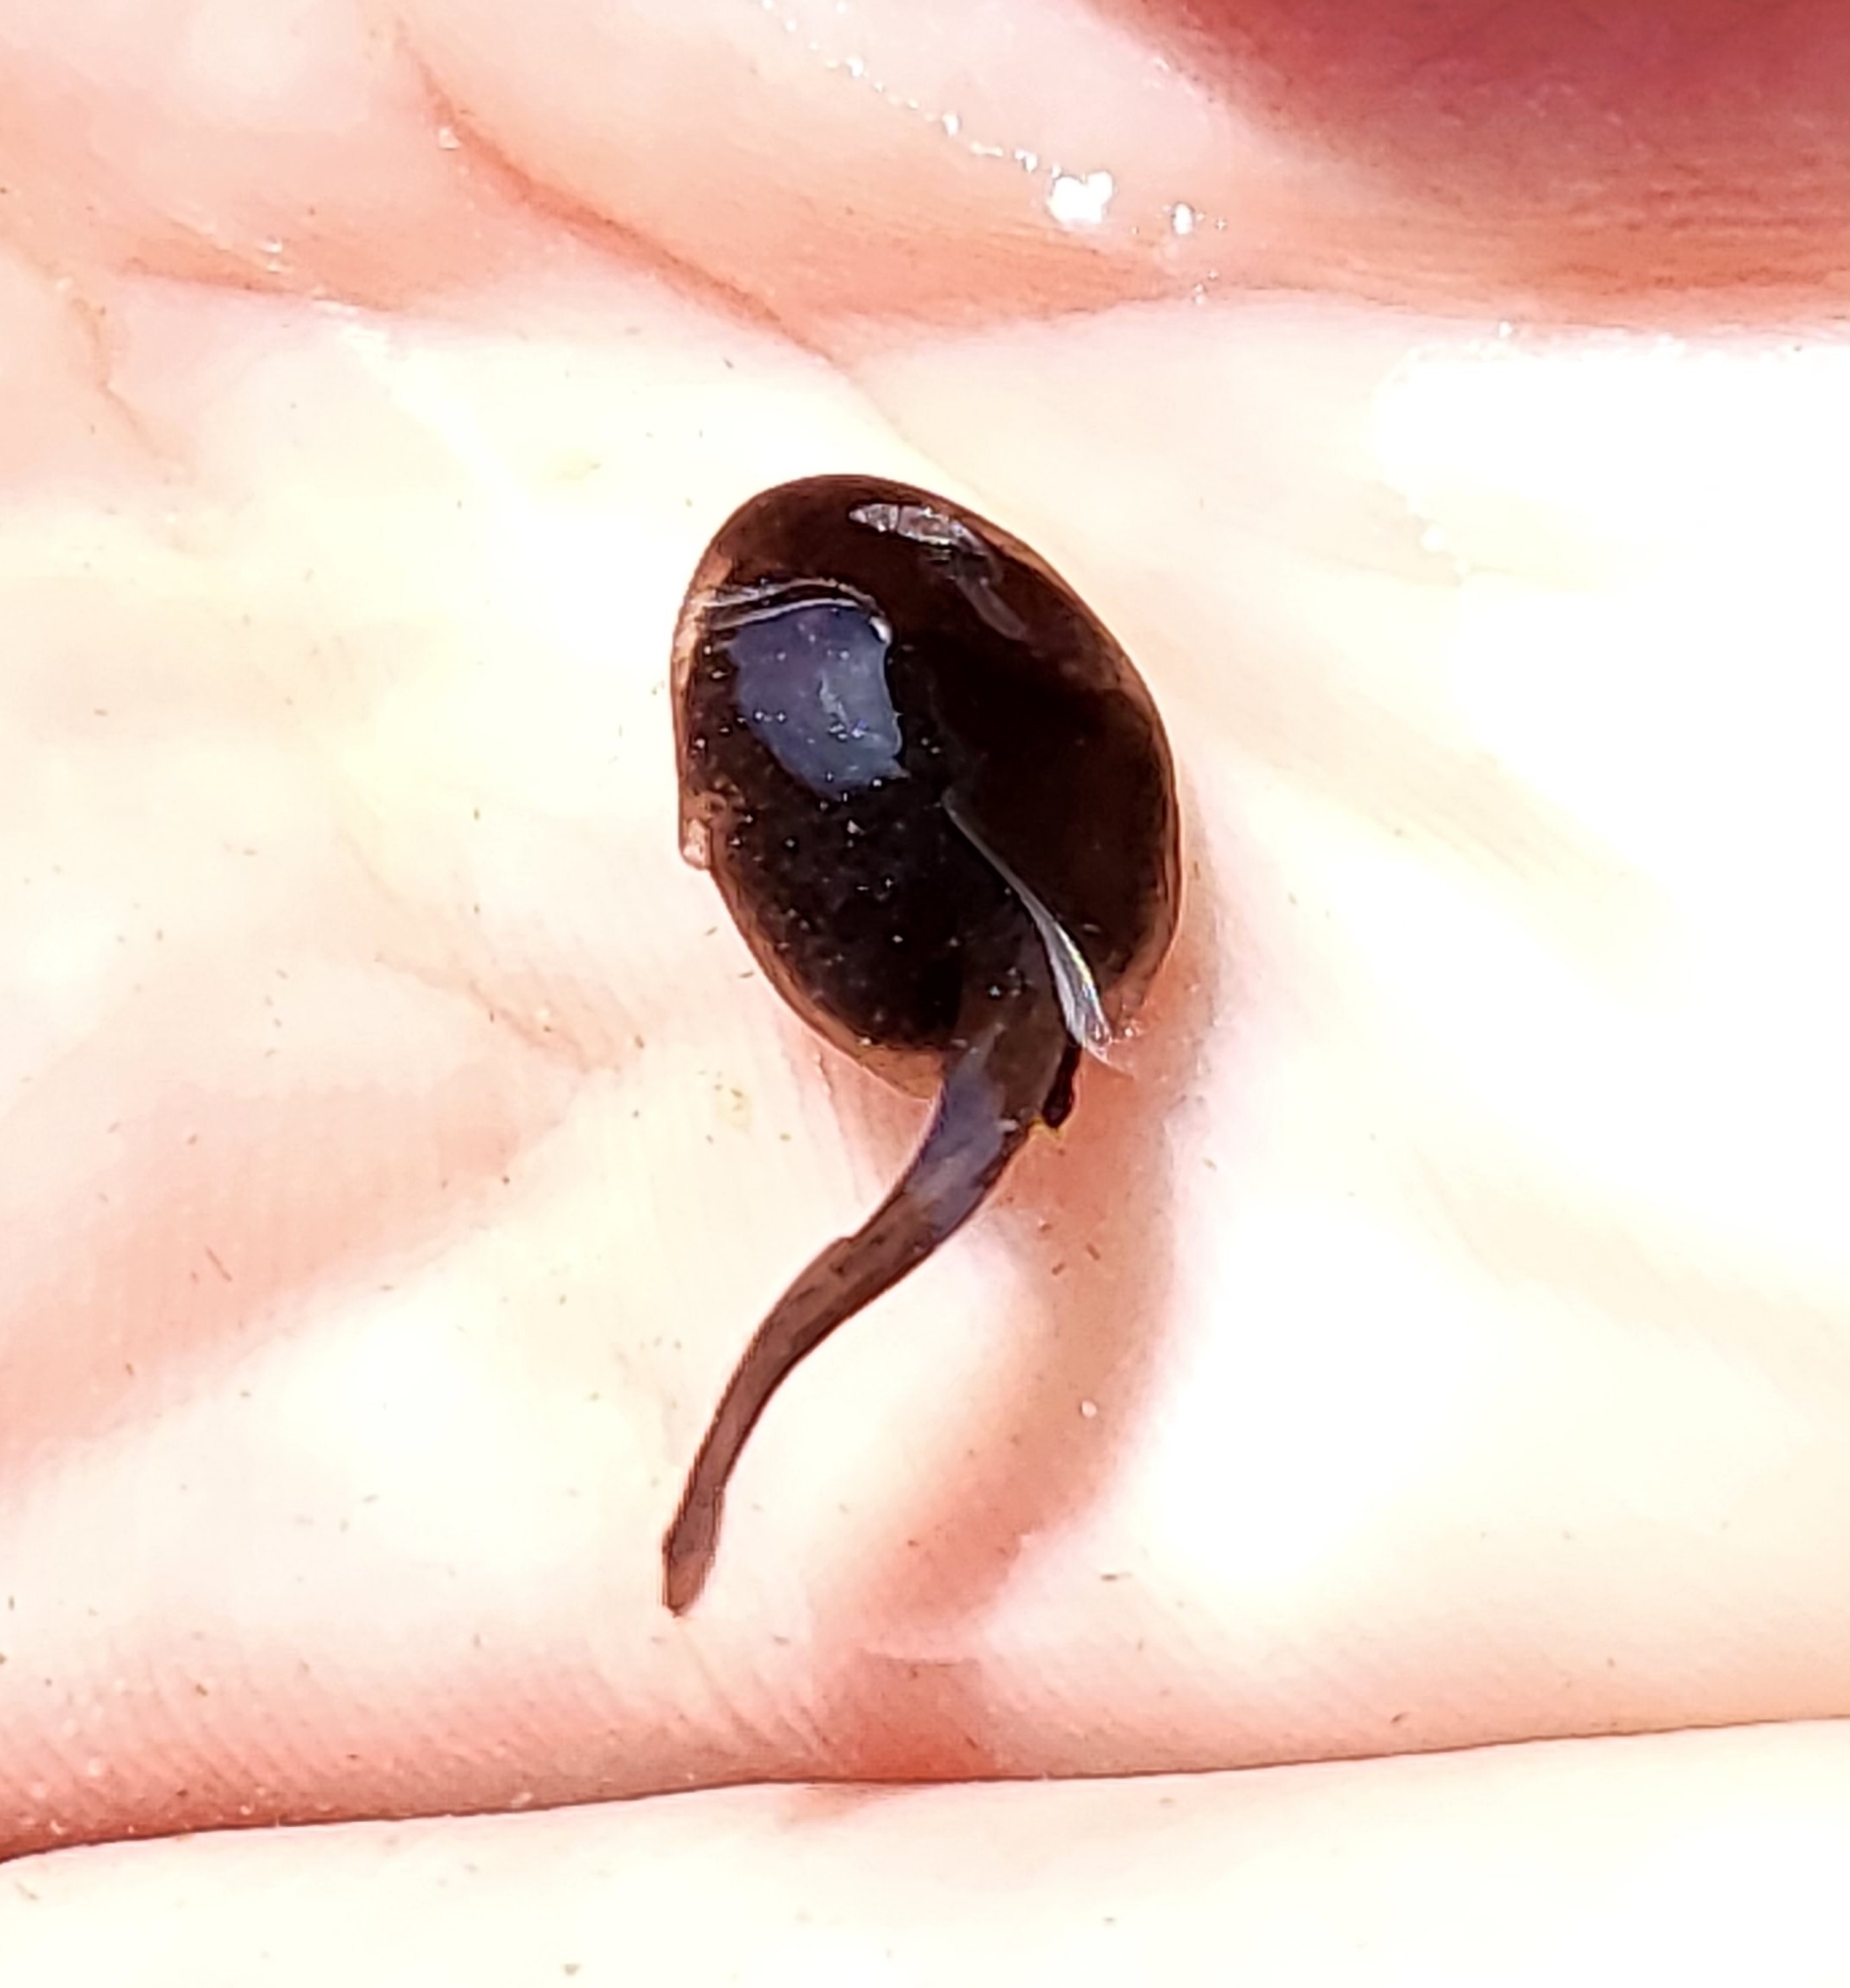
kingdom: Animalia
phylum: Chordata
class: Amphibia
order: Anura
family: Bufonidae
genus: Anaxyrus
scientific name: Anaxyrus boreas
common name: Western toad
